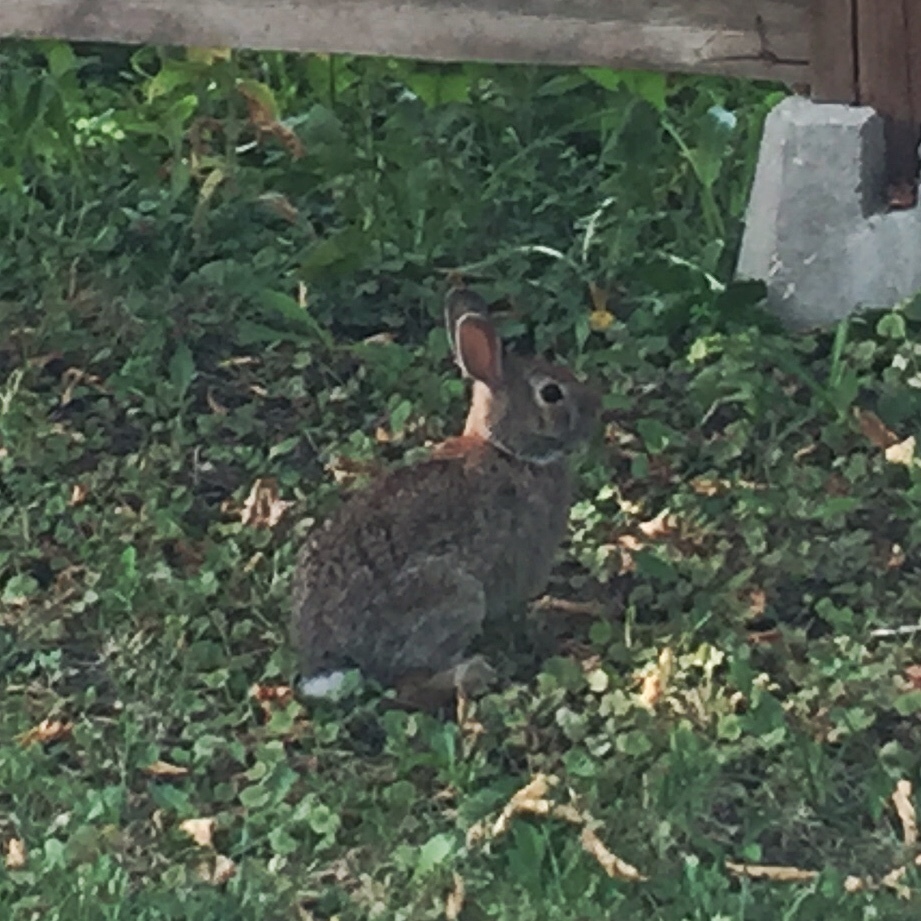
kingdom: Animalia
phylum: Chordata
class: Mammalia
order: Lagomorpha
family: Leporidae
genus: Sylvilagus
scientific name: Sylvilagus floridanus
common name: Eastern cottontail
